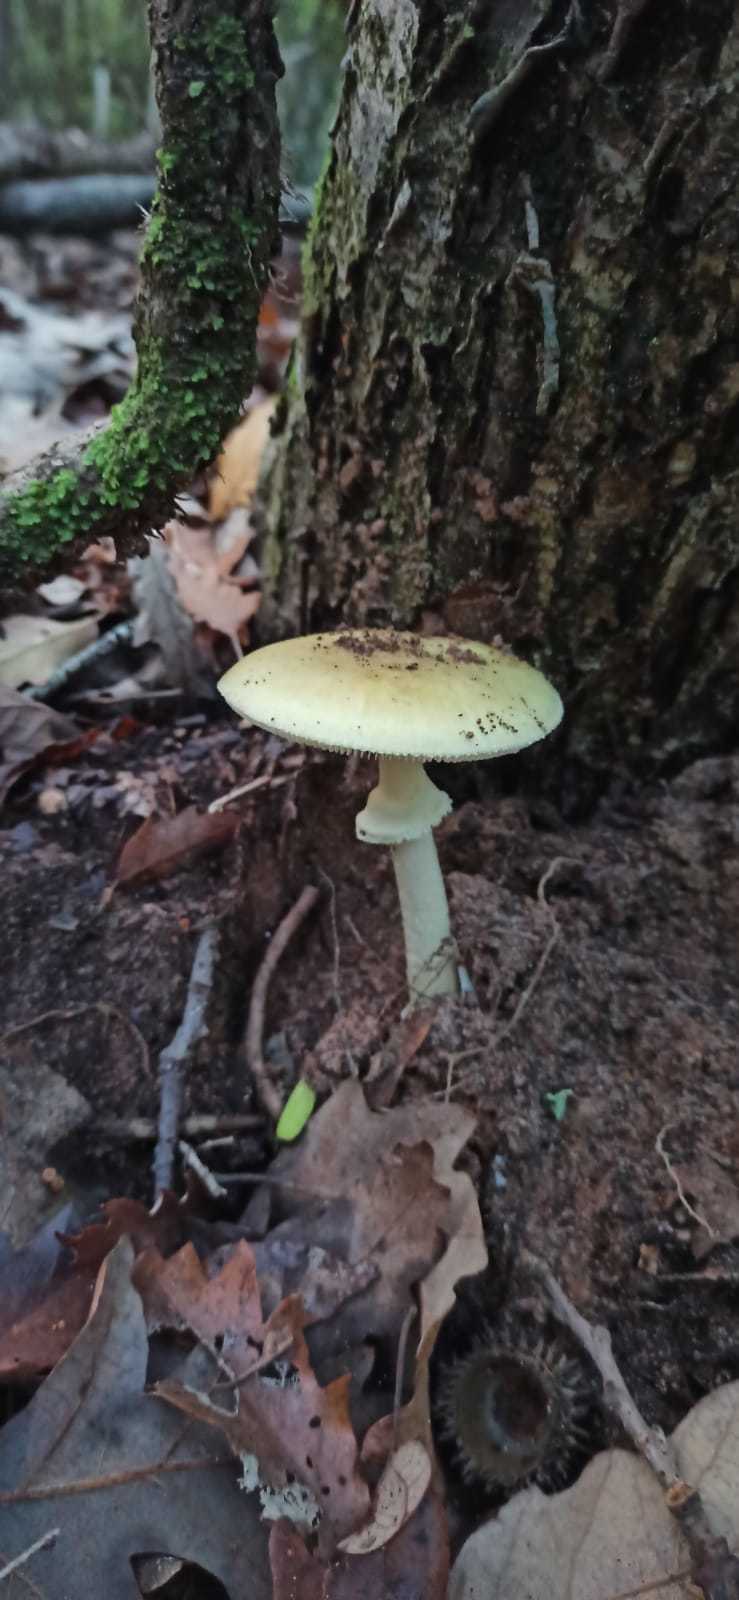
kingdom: Fungi
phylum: Basidiomycota
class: Agaricomycetes
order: Agaricales
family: Amanitaceae
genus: Amanita
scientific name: Amanita phalloides
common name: Death cap
